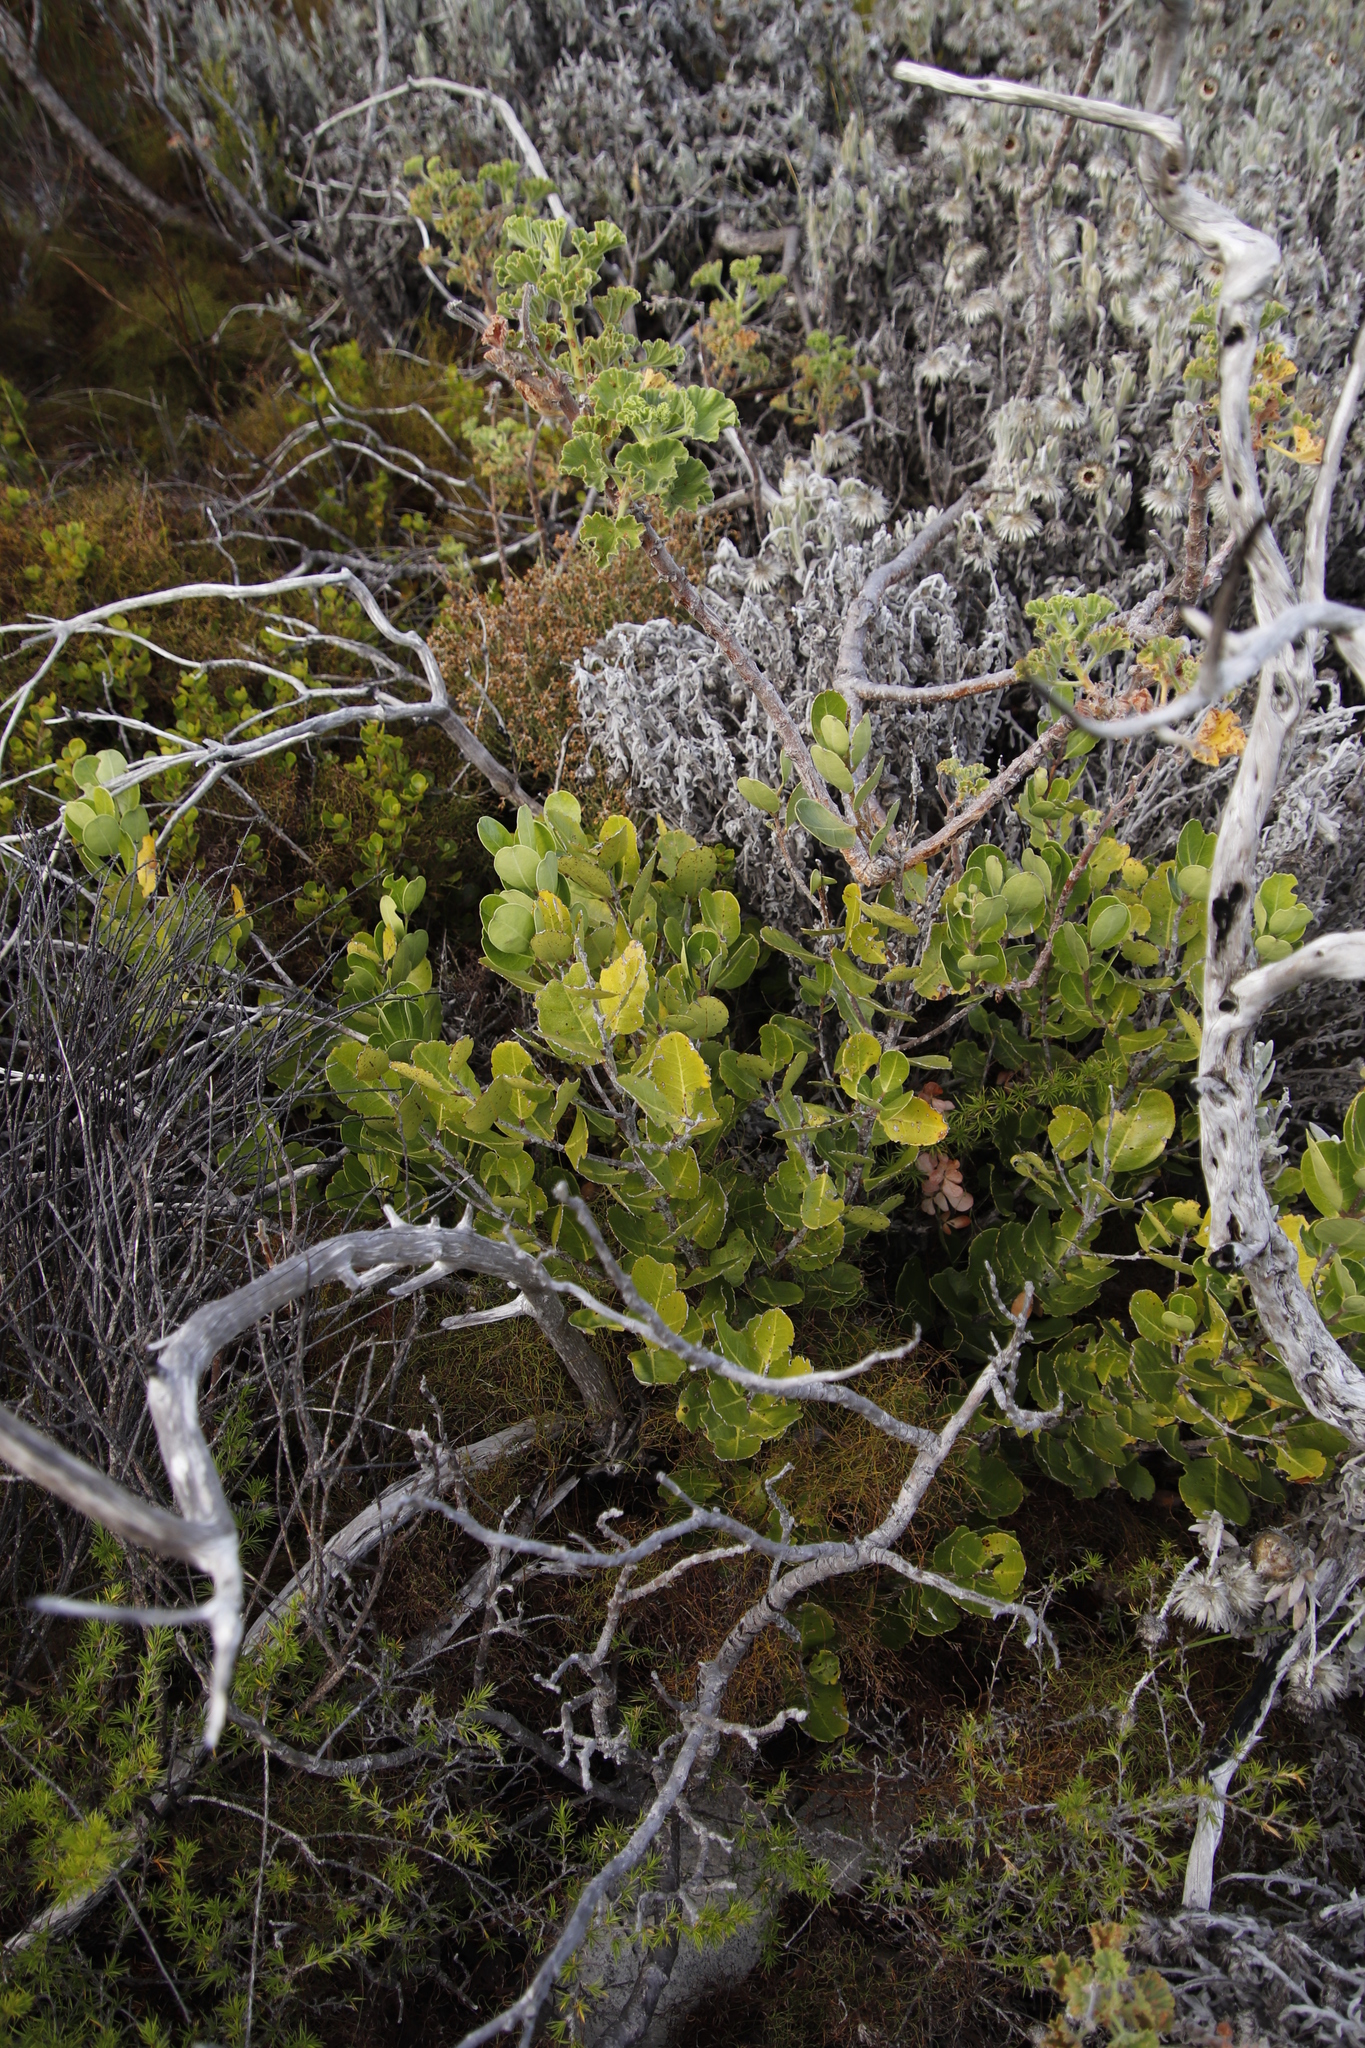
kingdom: Plantae
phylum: Tracheophyta
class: Magnoliopsida
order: Lamiales
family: Oleaceae
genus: Olea
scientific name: Olea capensis
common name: Black ironwood
